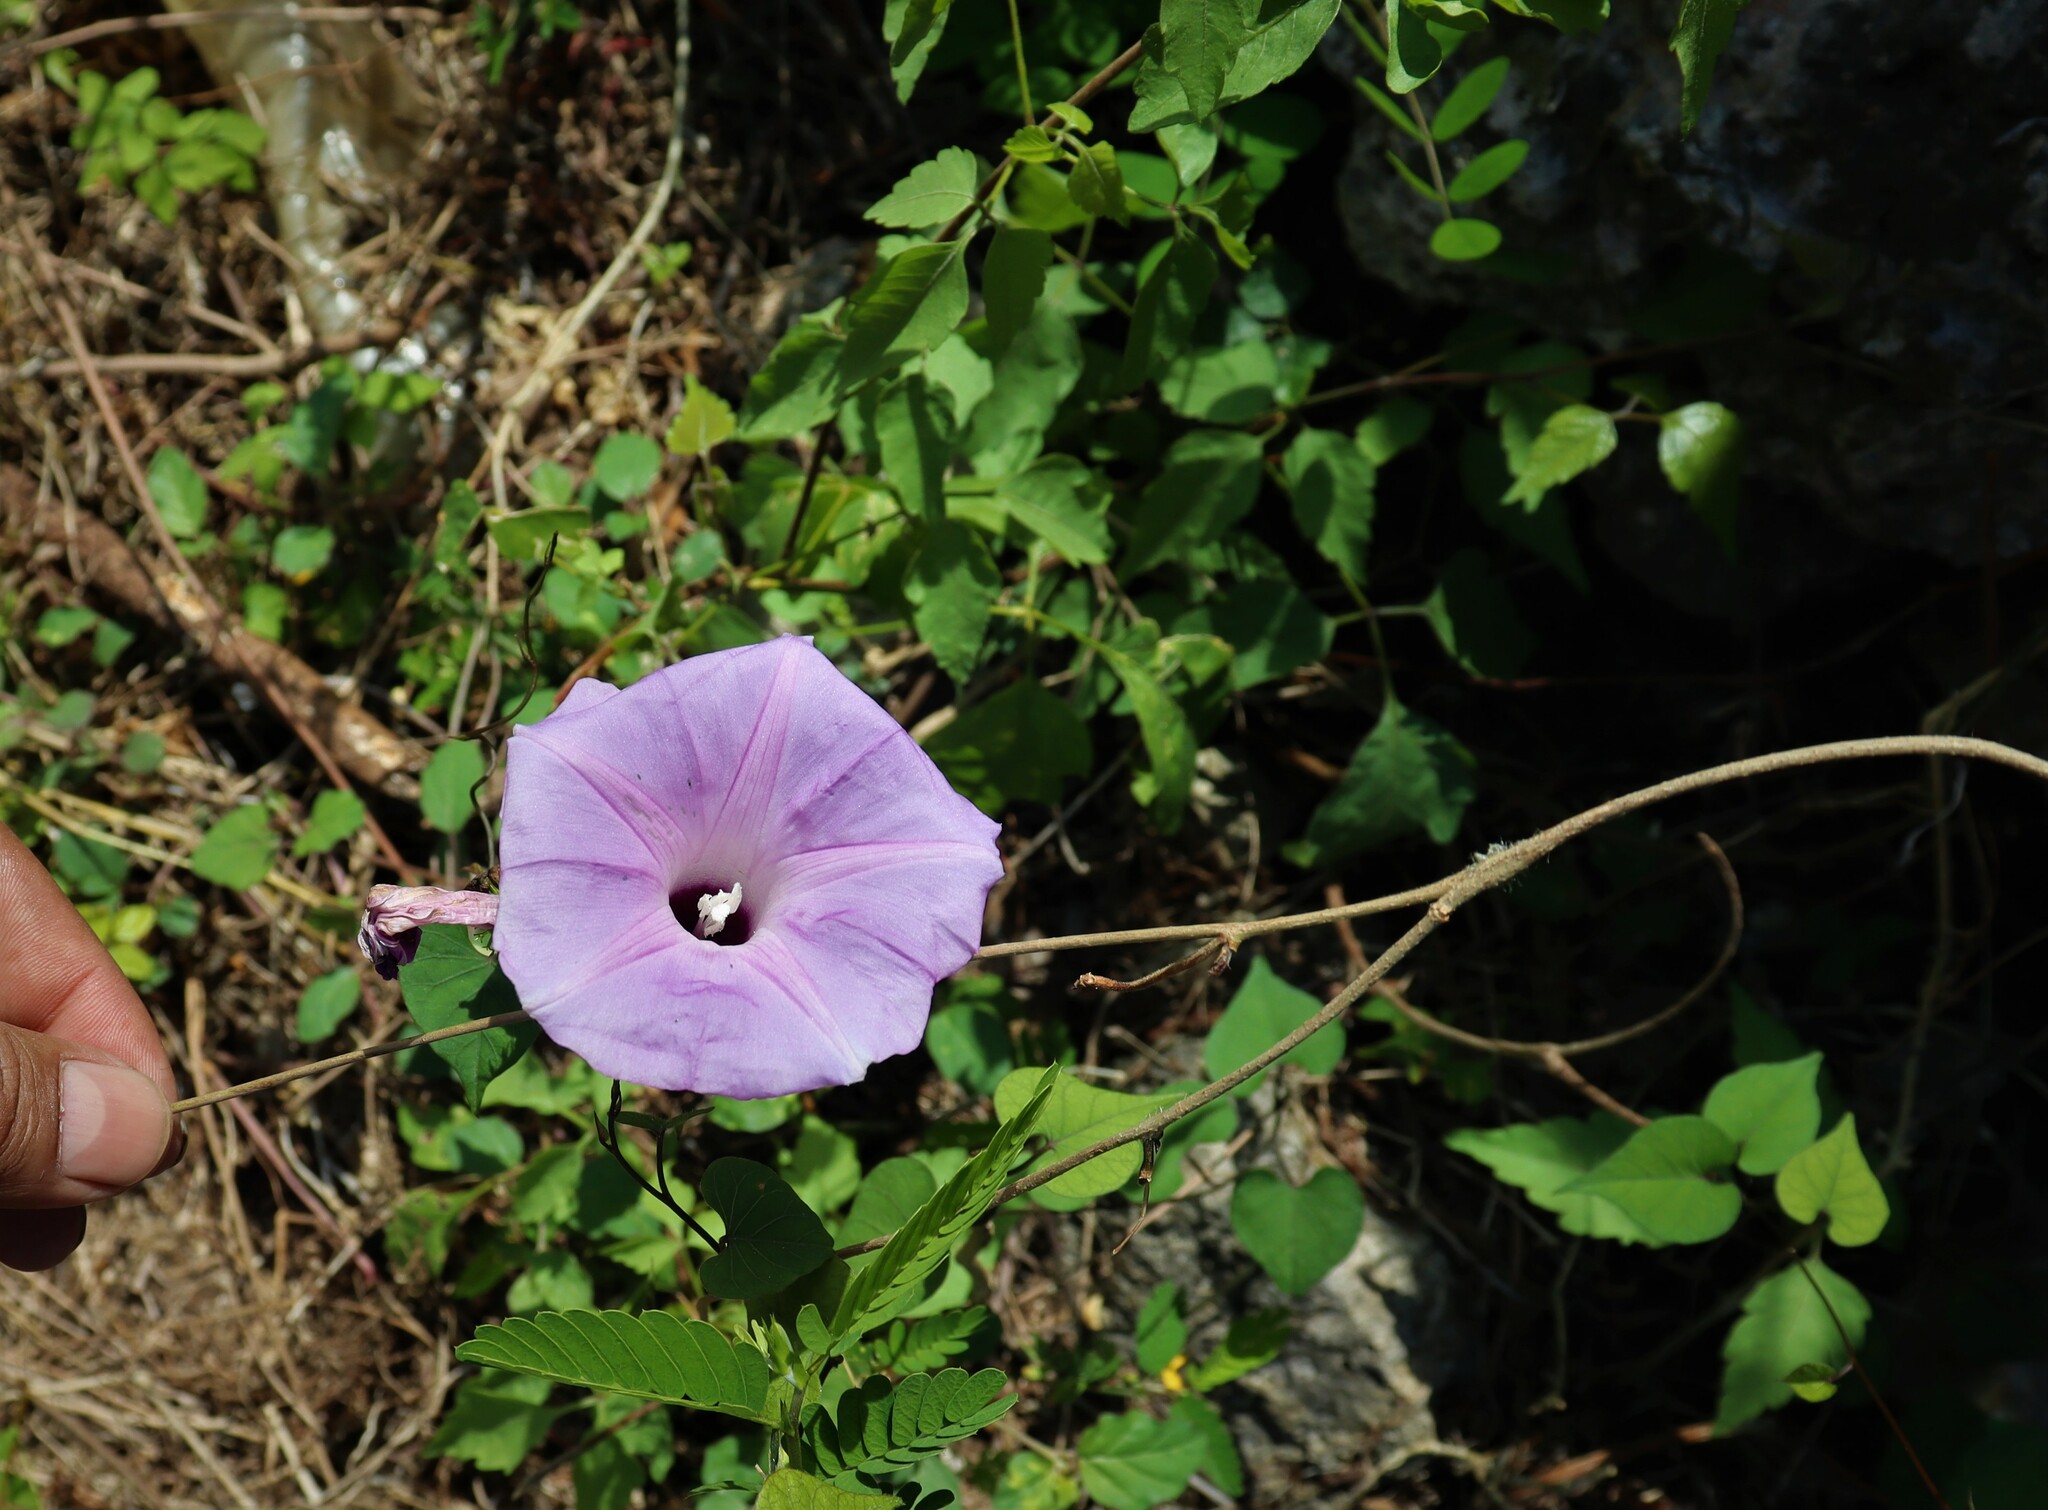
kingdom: Plantae
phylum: Tracheophyta
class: Magnoliopsida
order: Solanales
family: Convolvulaceae
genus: Ipomoea
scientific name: Ipomoea crinicalyx
